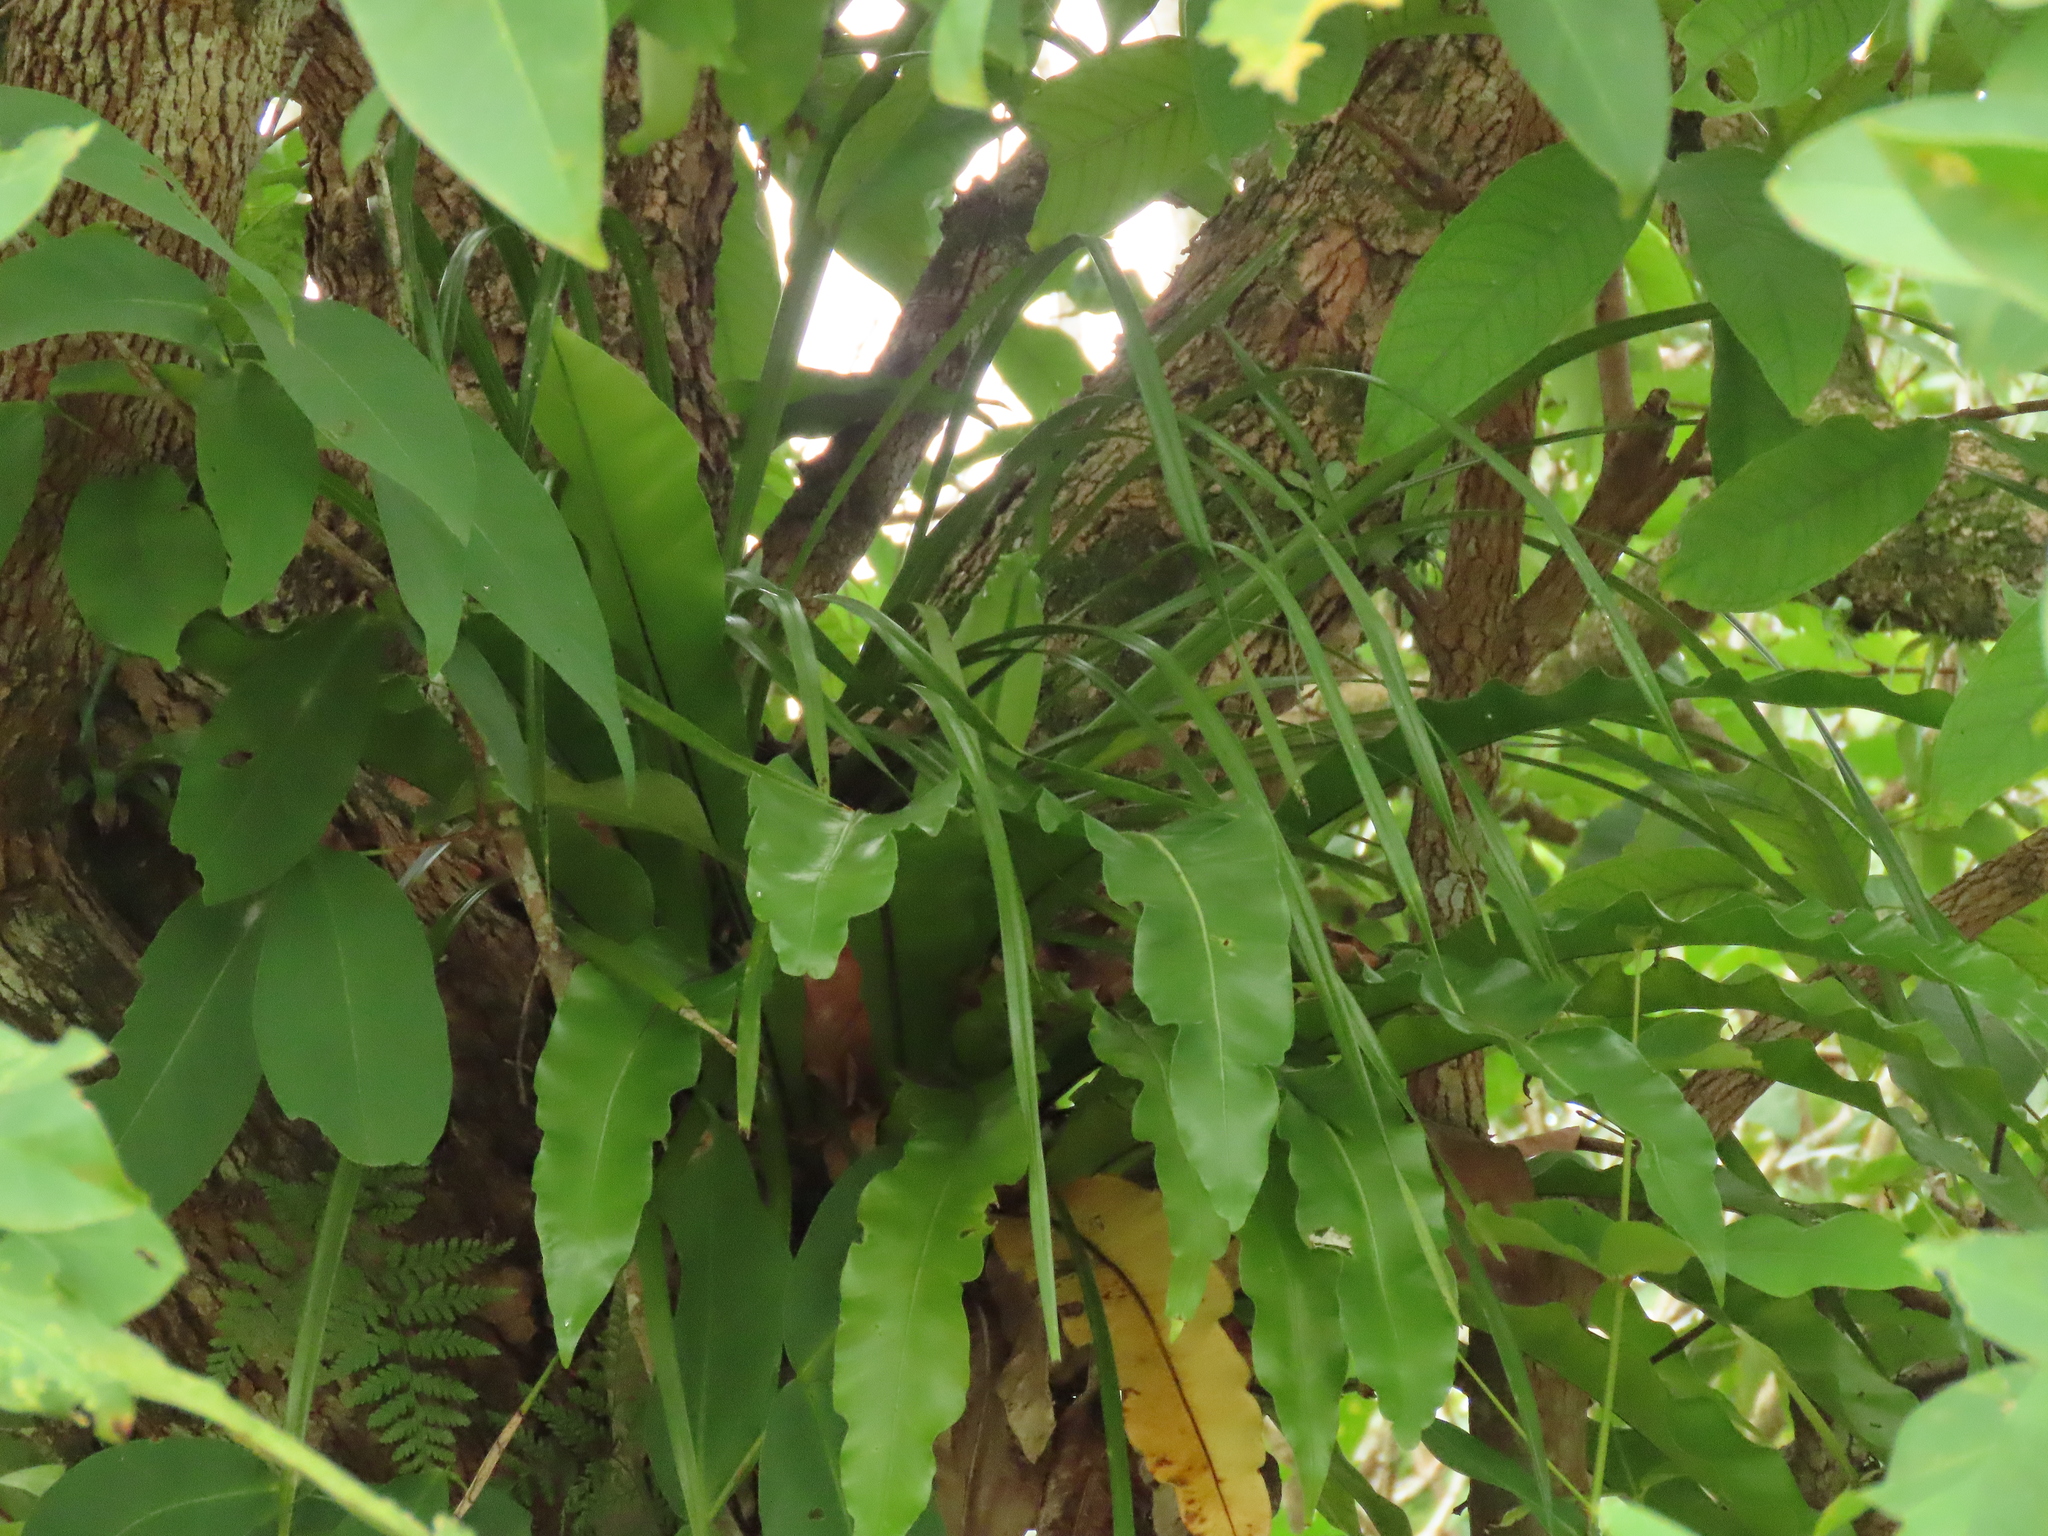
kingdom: Plantae
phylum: Tracheophyta
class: Liliopsida
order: Asparagales
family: Orchidaceae
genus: Cymbidium
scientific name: Cymbidium dayanum
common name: Orchid
